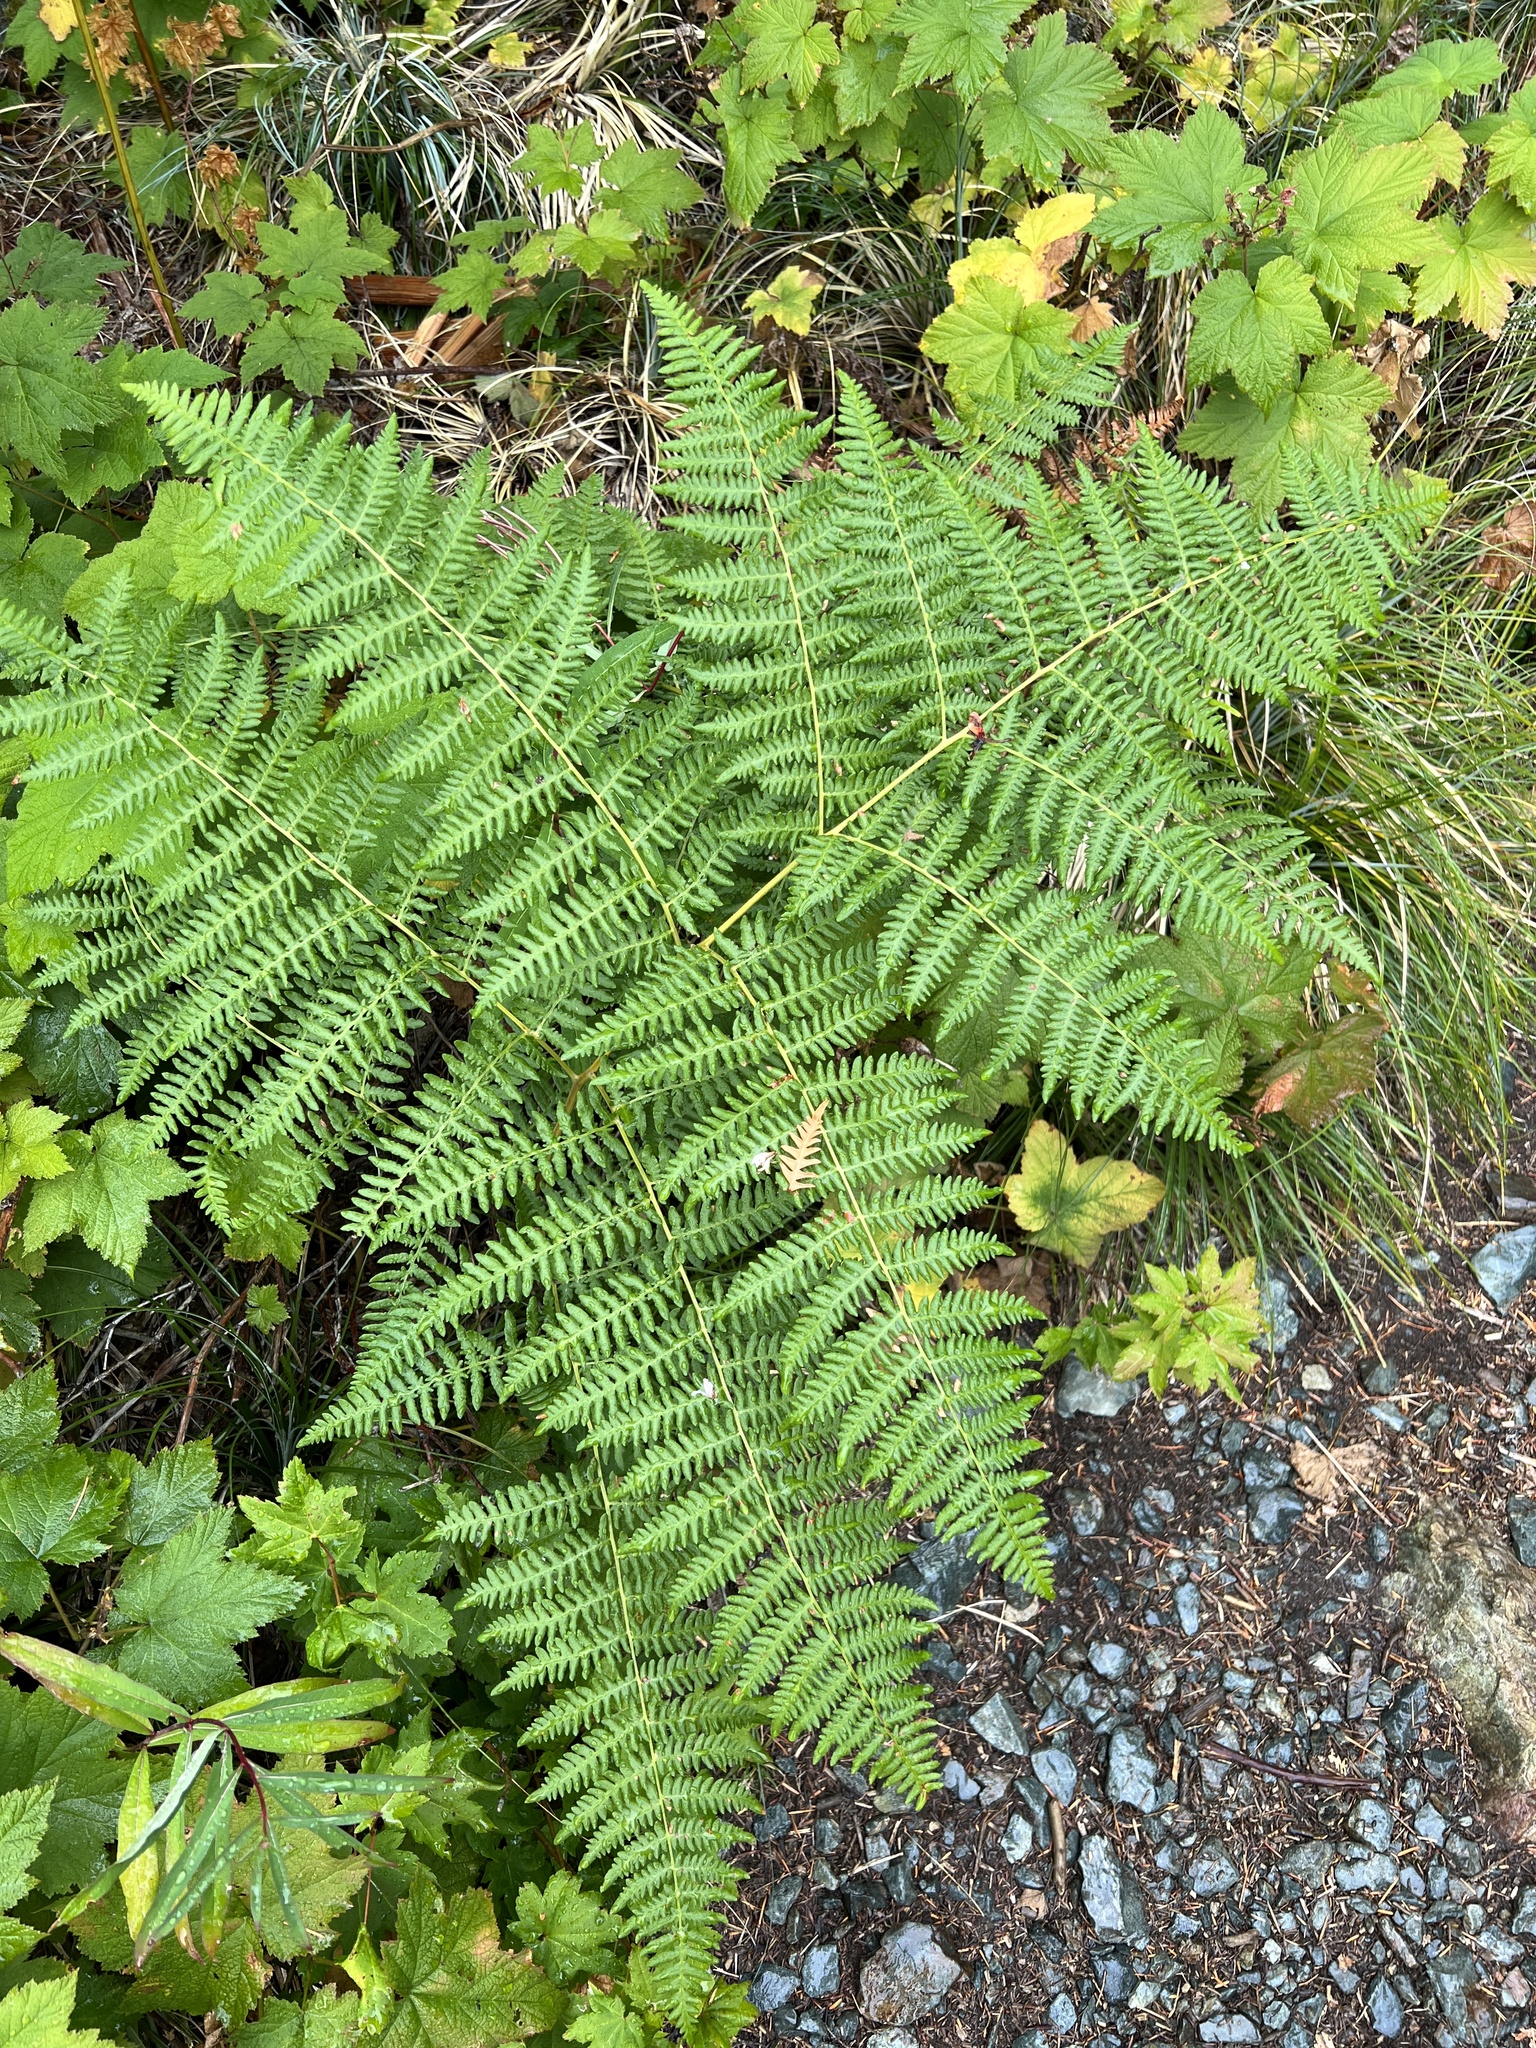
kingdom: Plantae
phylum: Tracheophyta
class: Polypodiopsida
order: Polypodiales
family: Dennstaedtiaceae
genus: Pteridium
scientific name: Pteridium aquilinum
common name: Bracken
